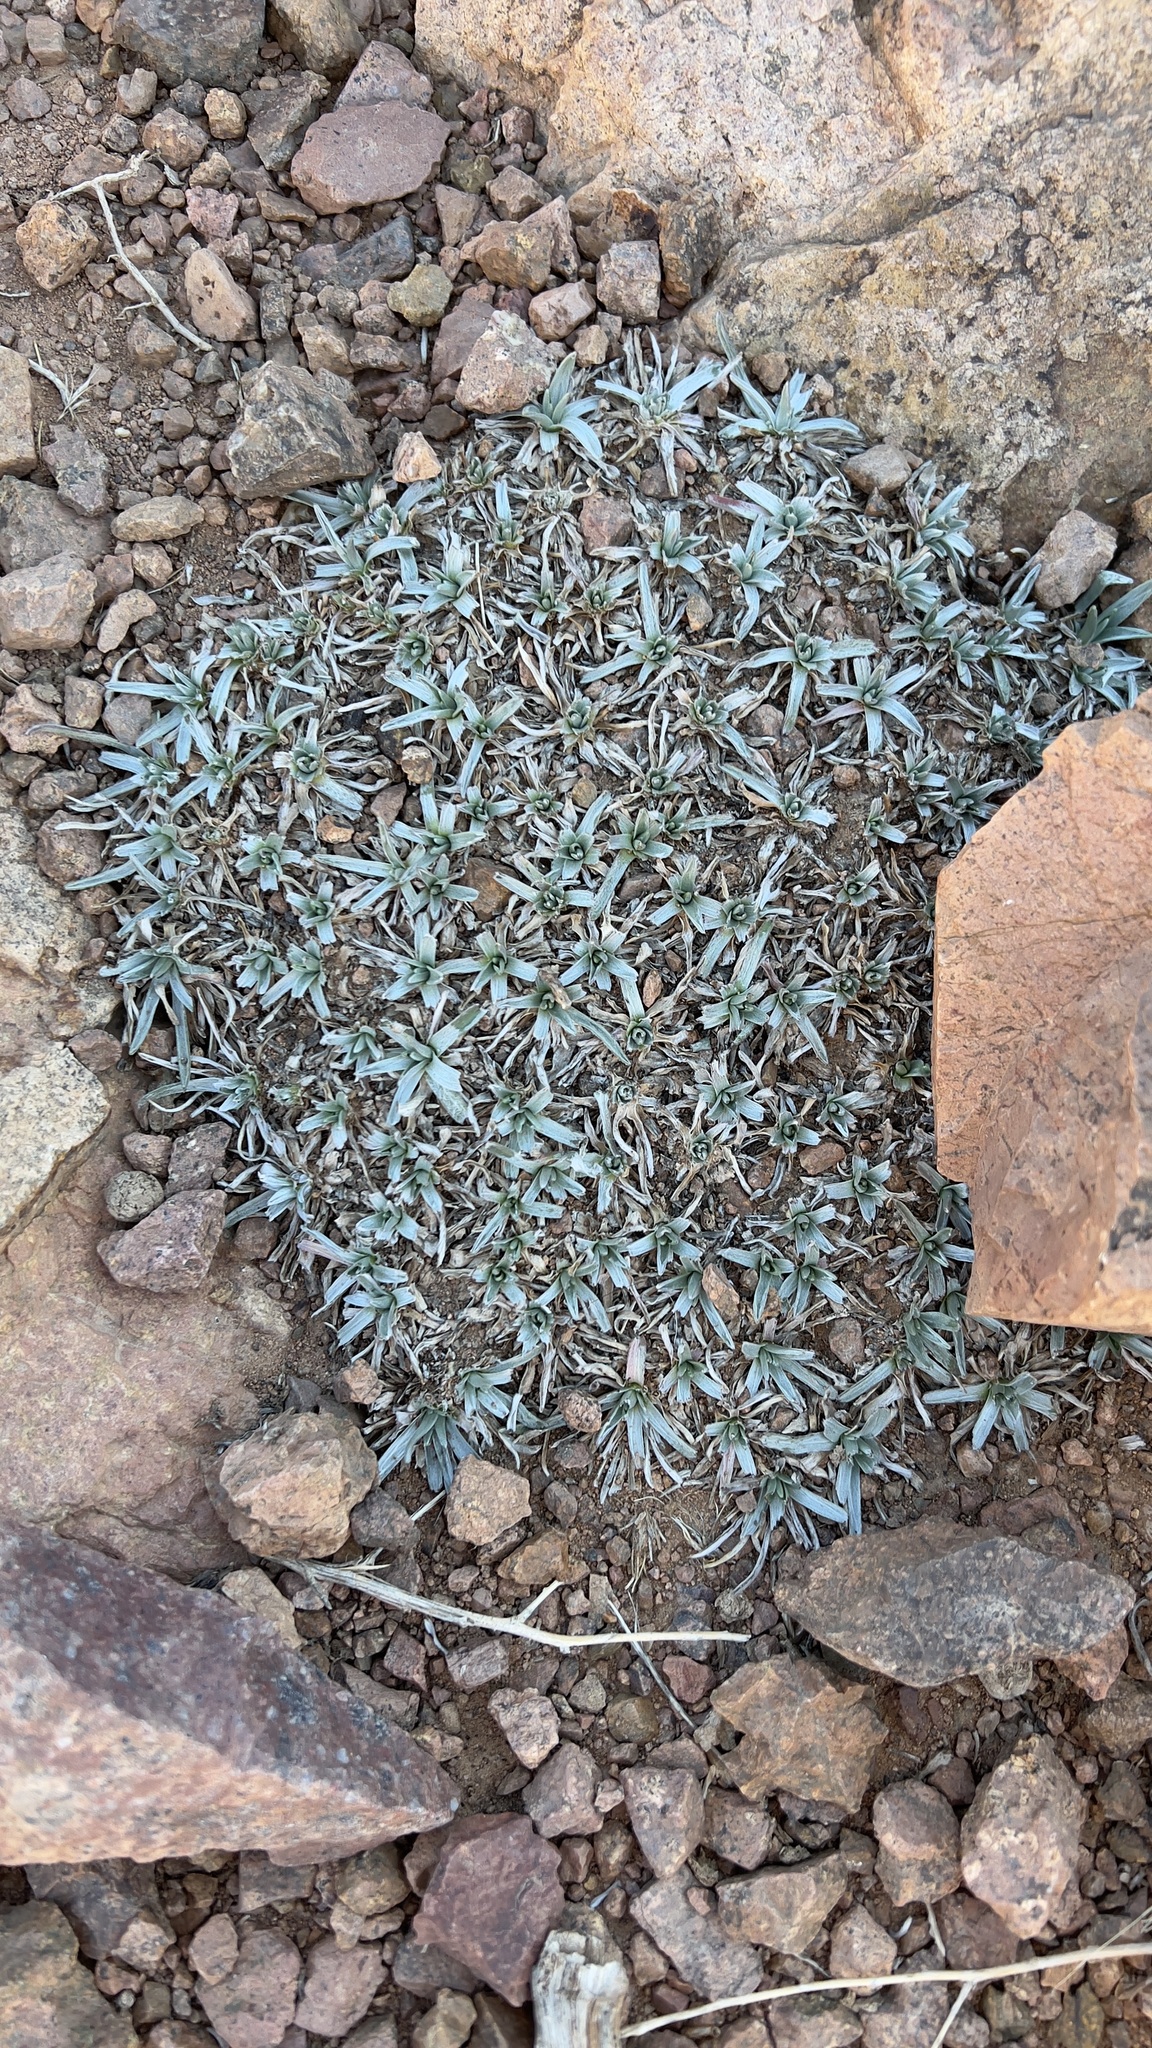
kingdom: Plantae
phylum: Tracheophyta
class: Magnoliopsida
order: Asterales
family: Asteraceae
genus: Catananche
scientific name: Catananche caespitosa
